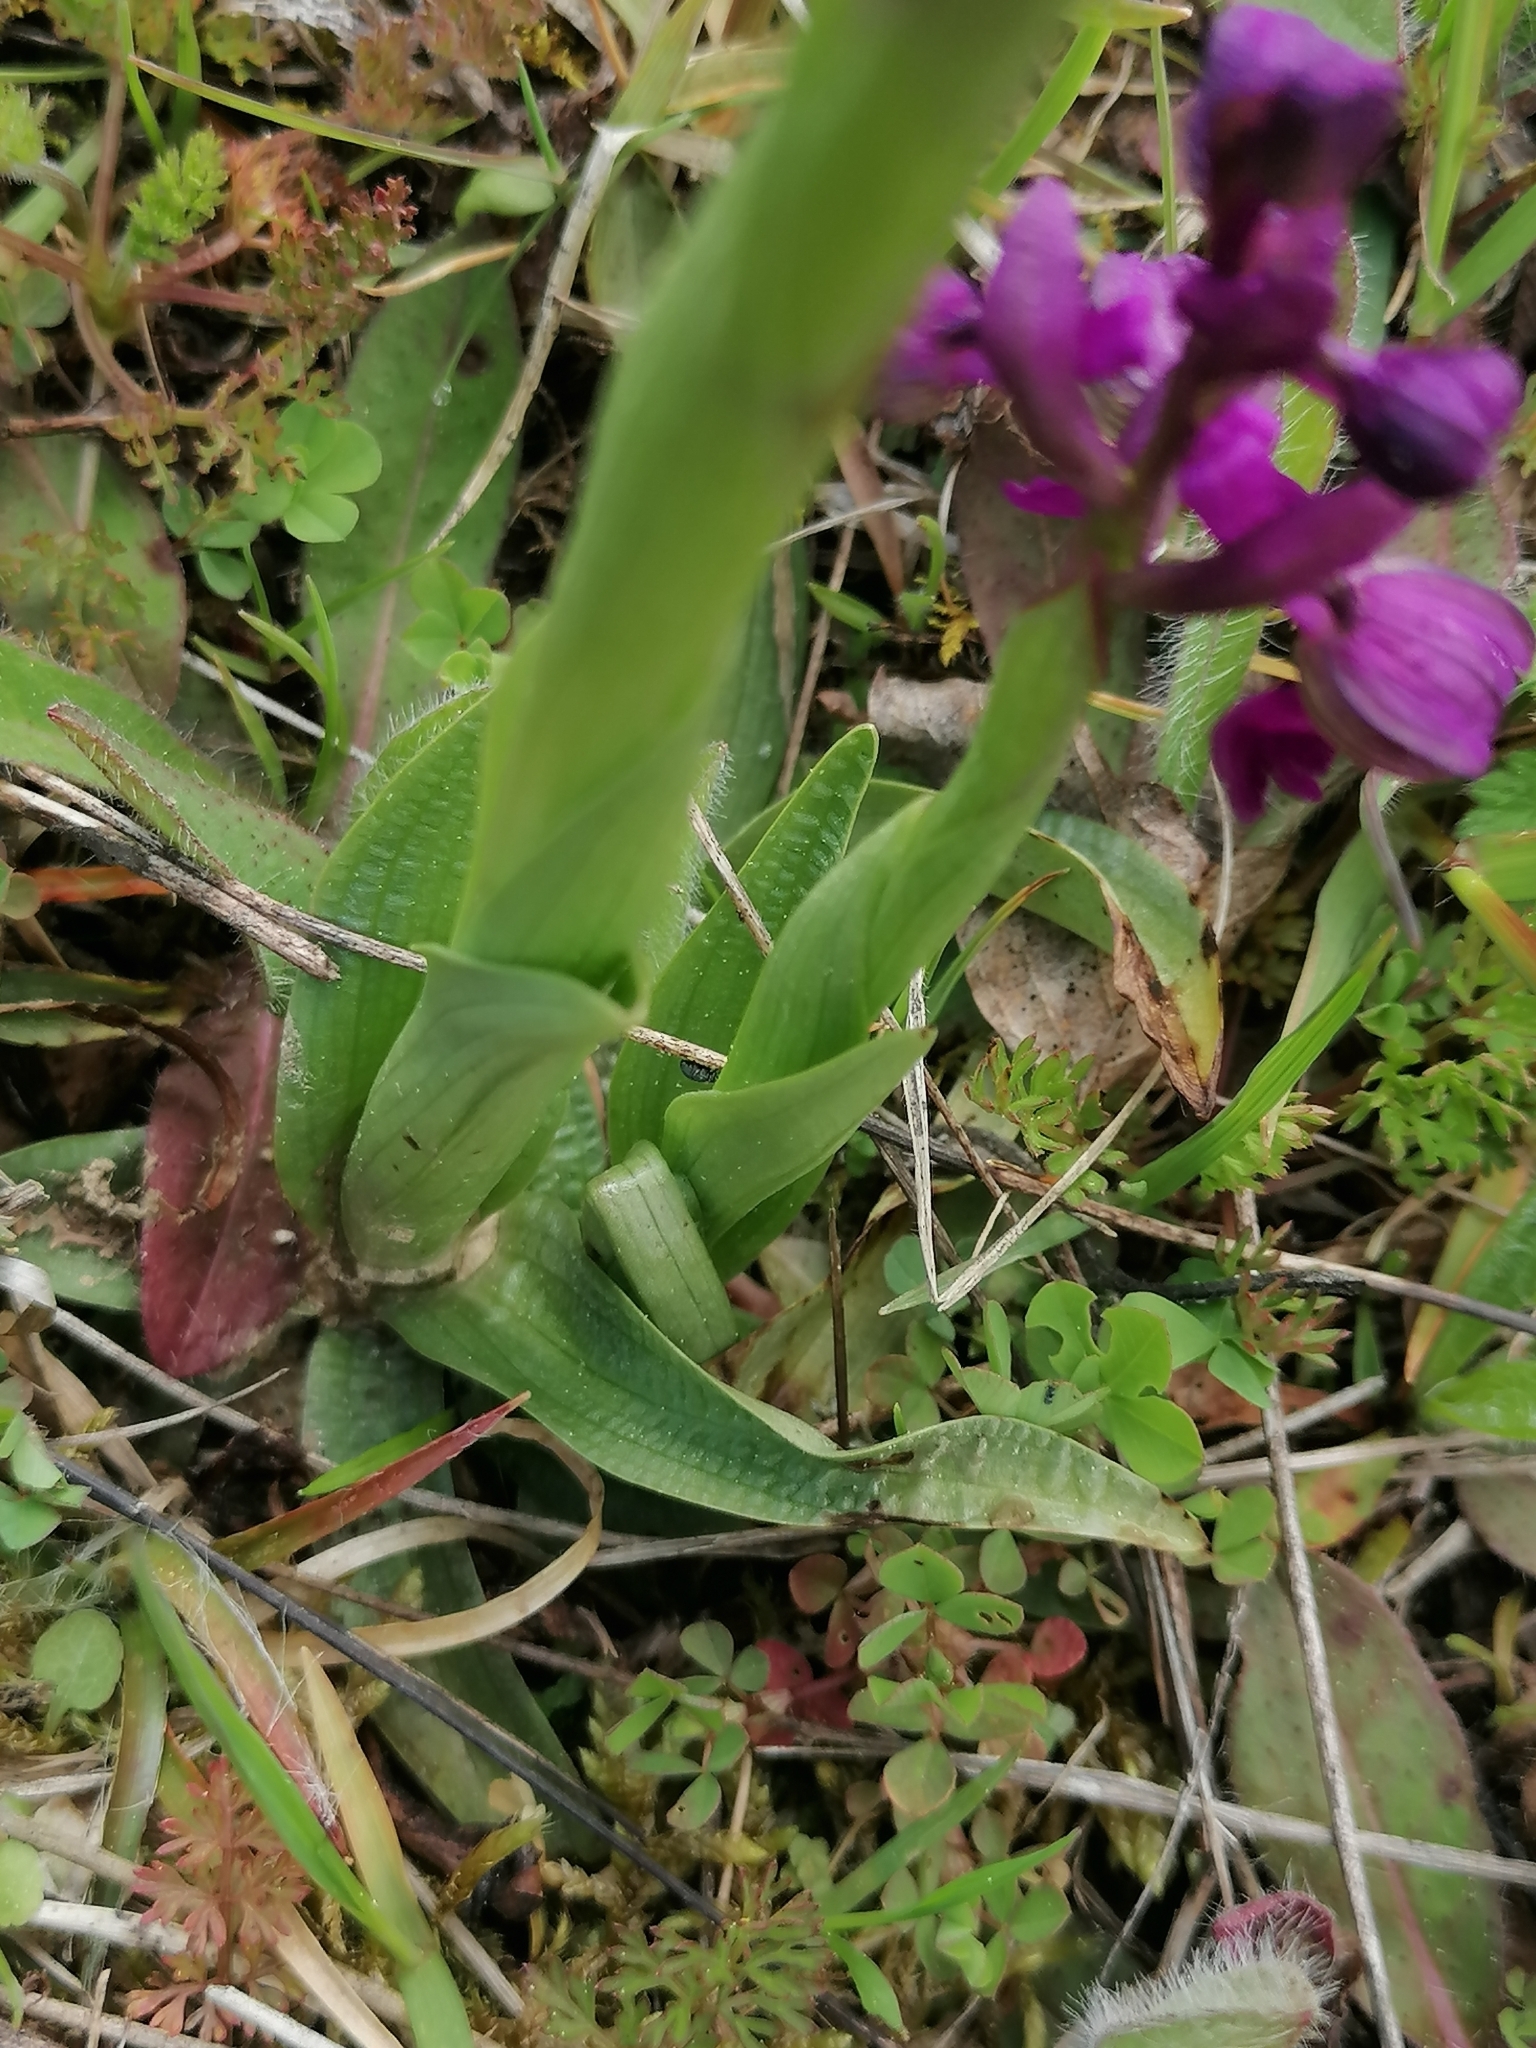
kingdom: Plantae
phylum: Tracheophyta
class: Liliopsida
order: Asparagales
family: Orchidaceae
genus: Anacamptis
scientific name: Anacamptis morio
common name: Green-winged orchid
